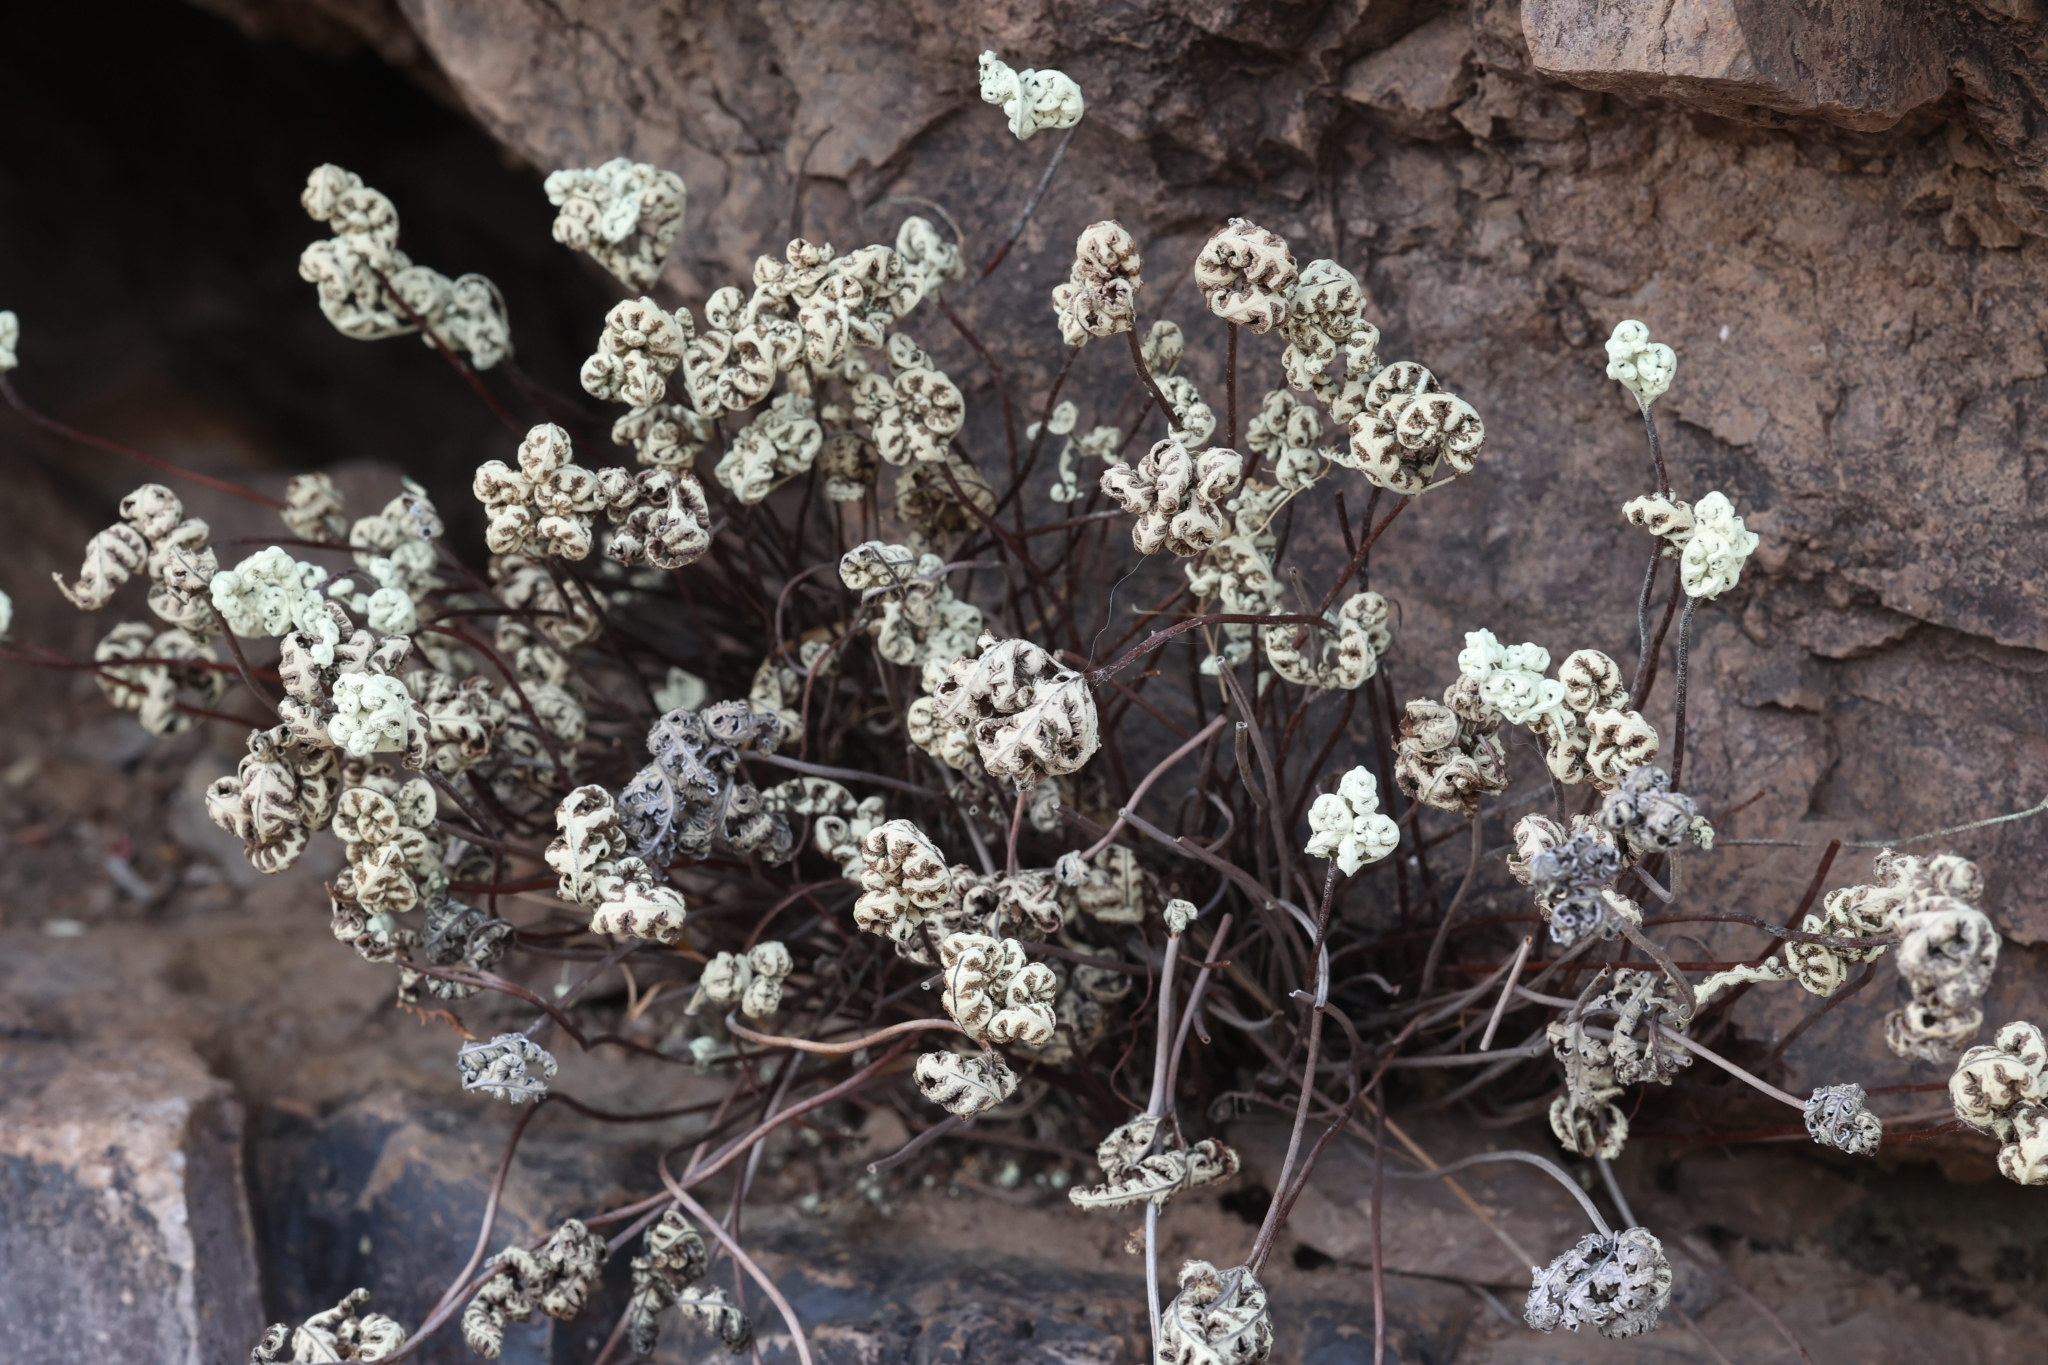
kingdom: Plantae
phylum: Tracheophyta
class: Polypodiopsida
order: Polypodiales
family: Pteridaceae
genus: Notholaena
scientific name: Notholaena standleyi
